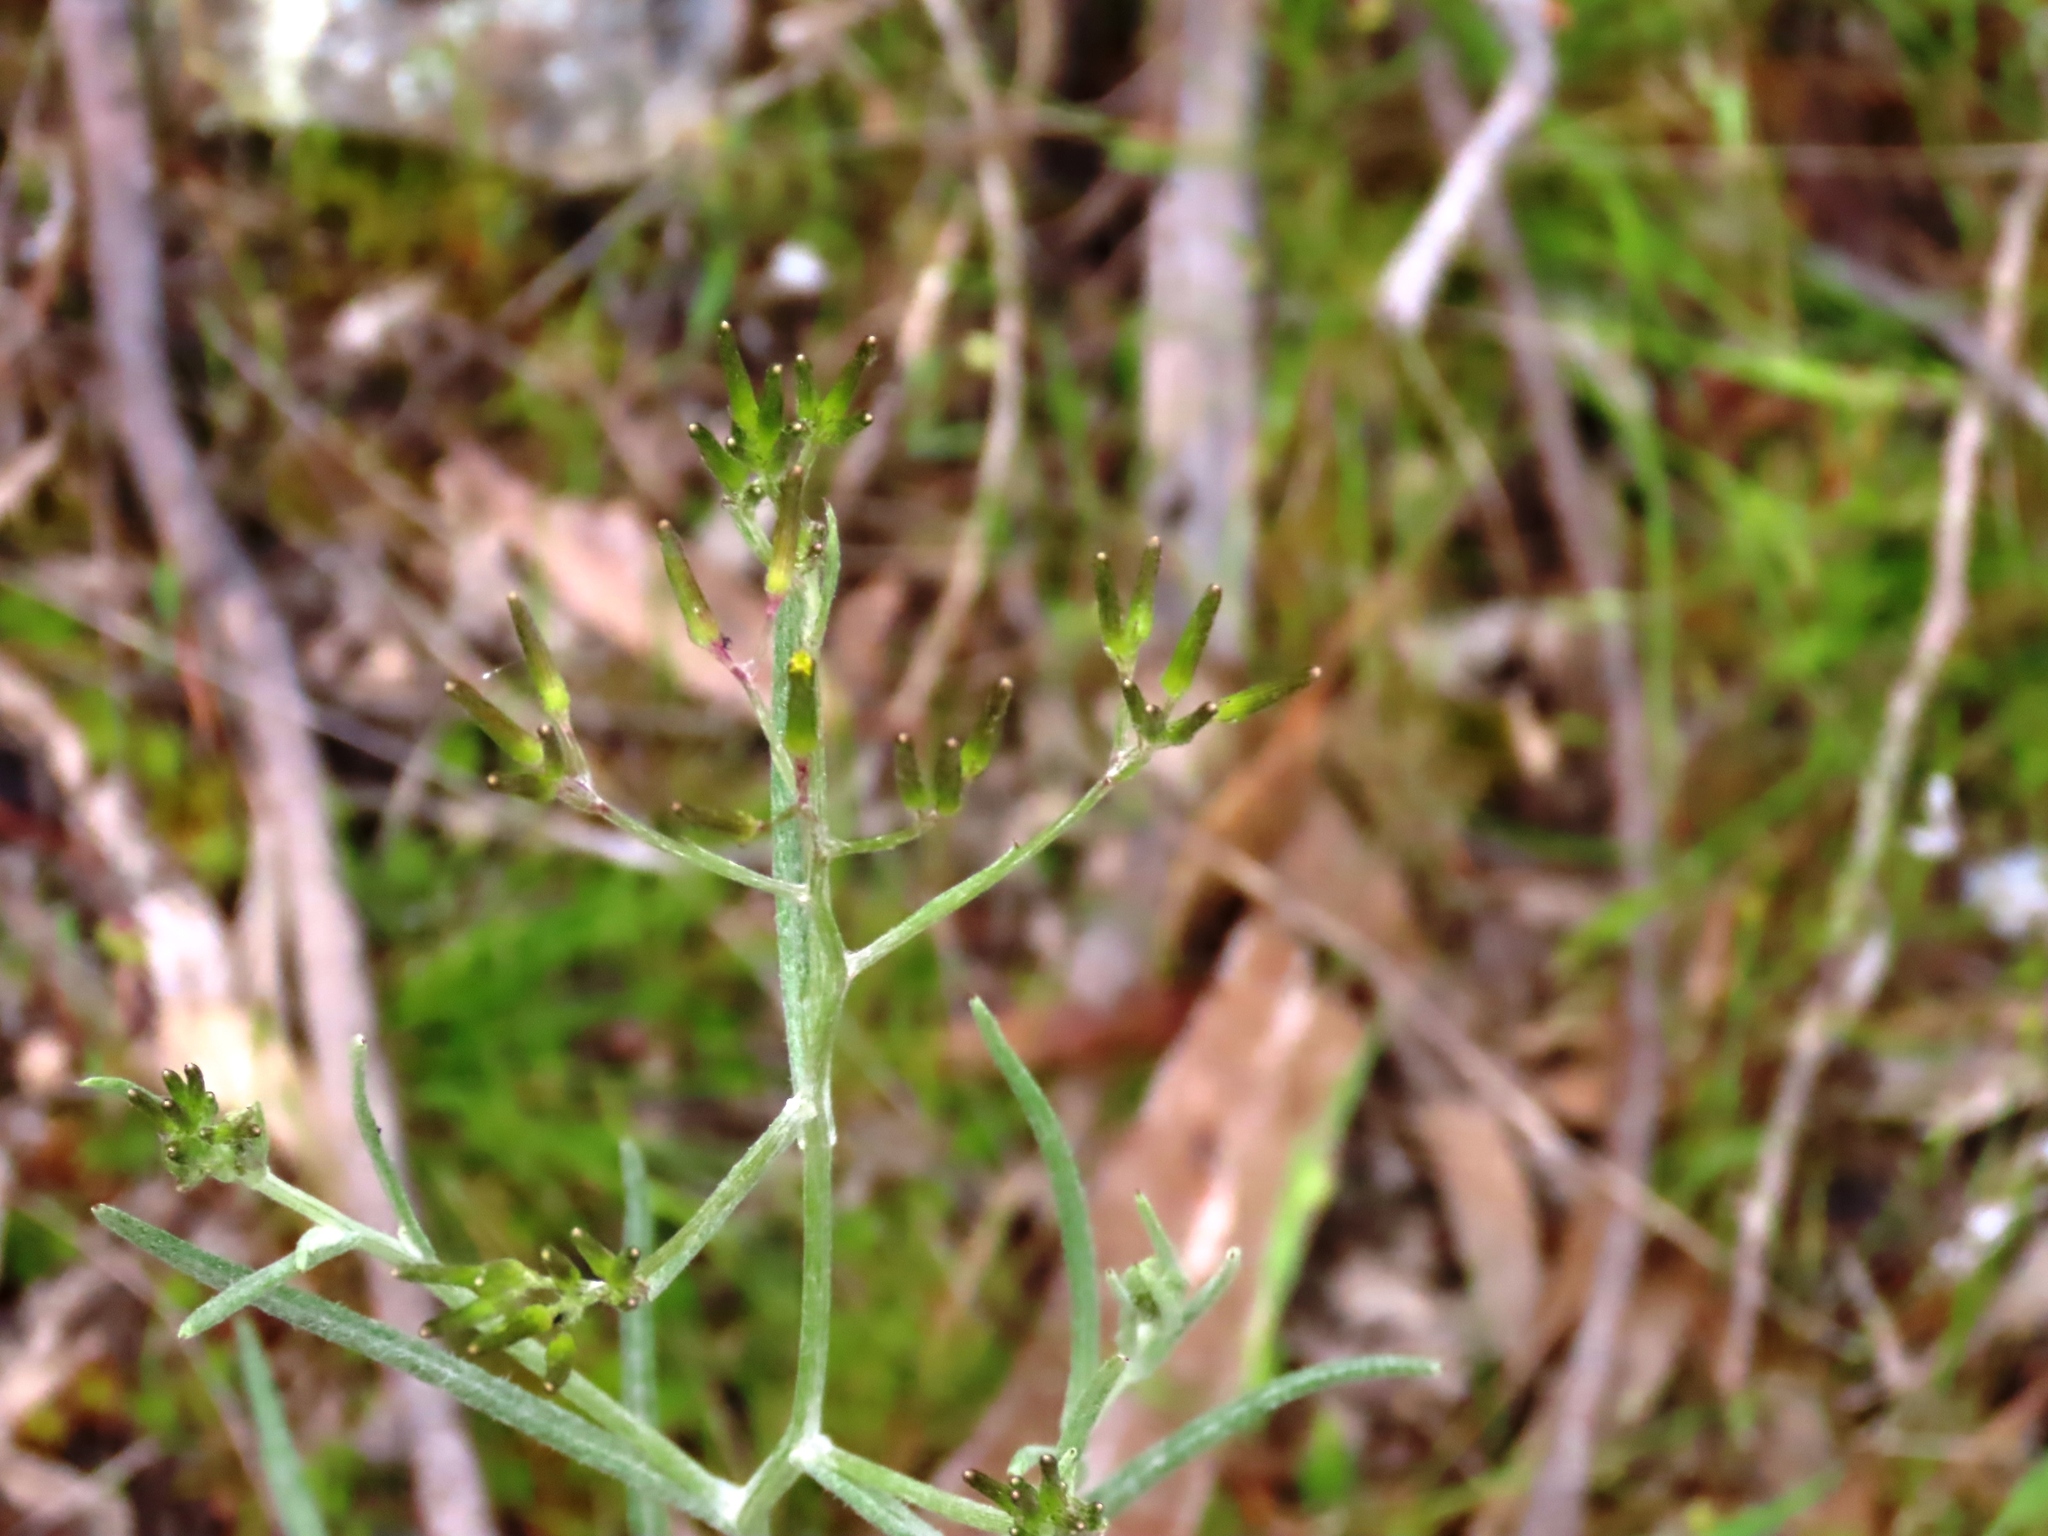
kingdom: Plantae
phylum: Tracheophyta
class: Magnoliopsida
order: Asterales
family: Asteraceae
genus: Senecio
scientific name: Senecio quadridentatus
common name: Cotton fireweed
